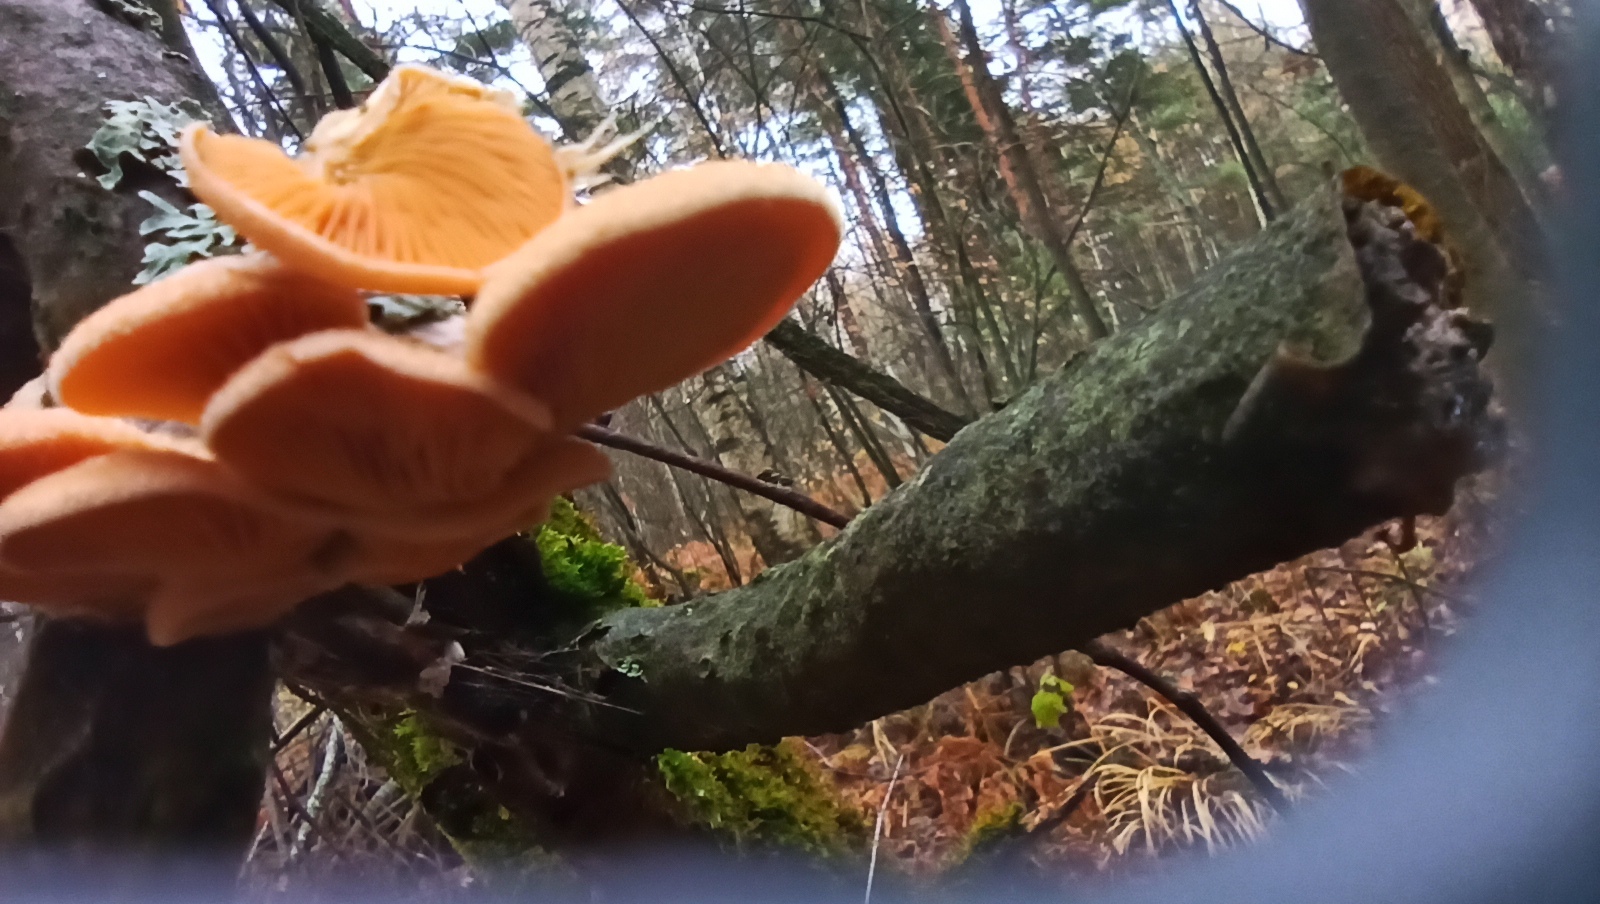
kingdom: Fungi
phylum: Basidiomycota
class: Agaricomycetes
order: Agaricales
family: Phyllotopsidaceae
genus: Phyllotopsis
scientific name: Phyllotopsis nidulans
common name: Orange mock oyster
